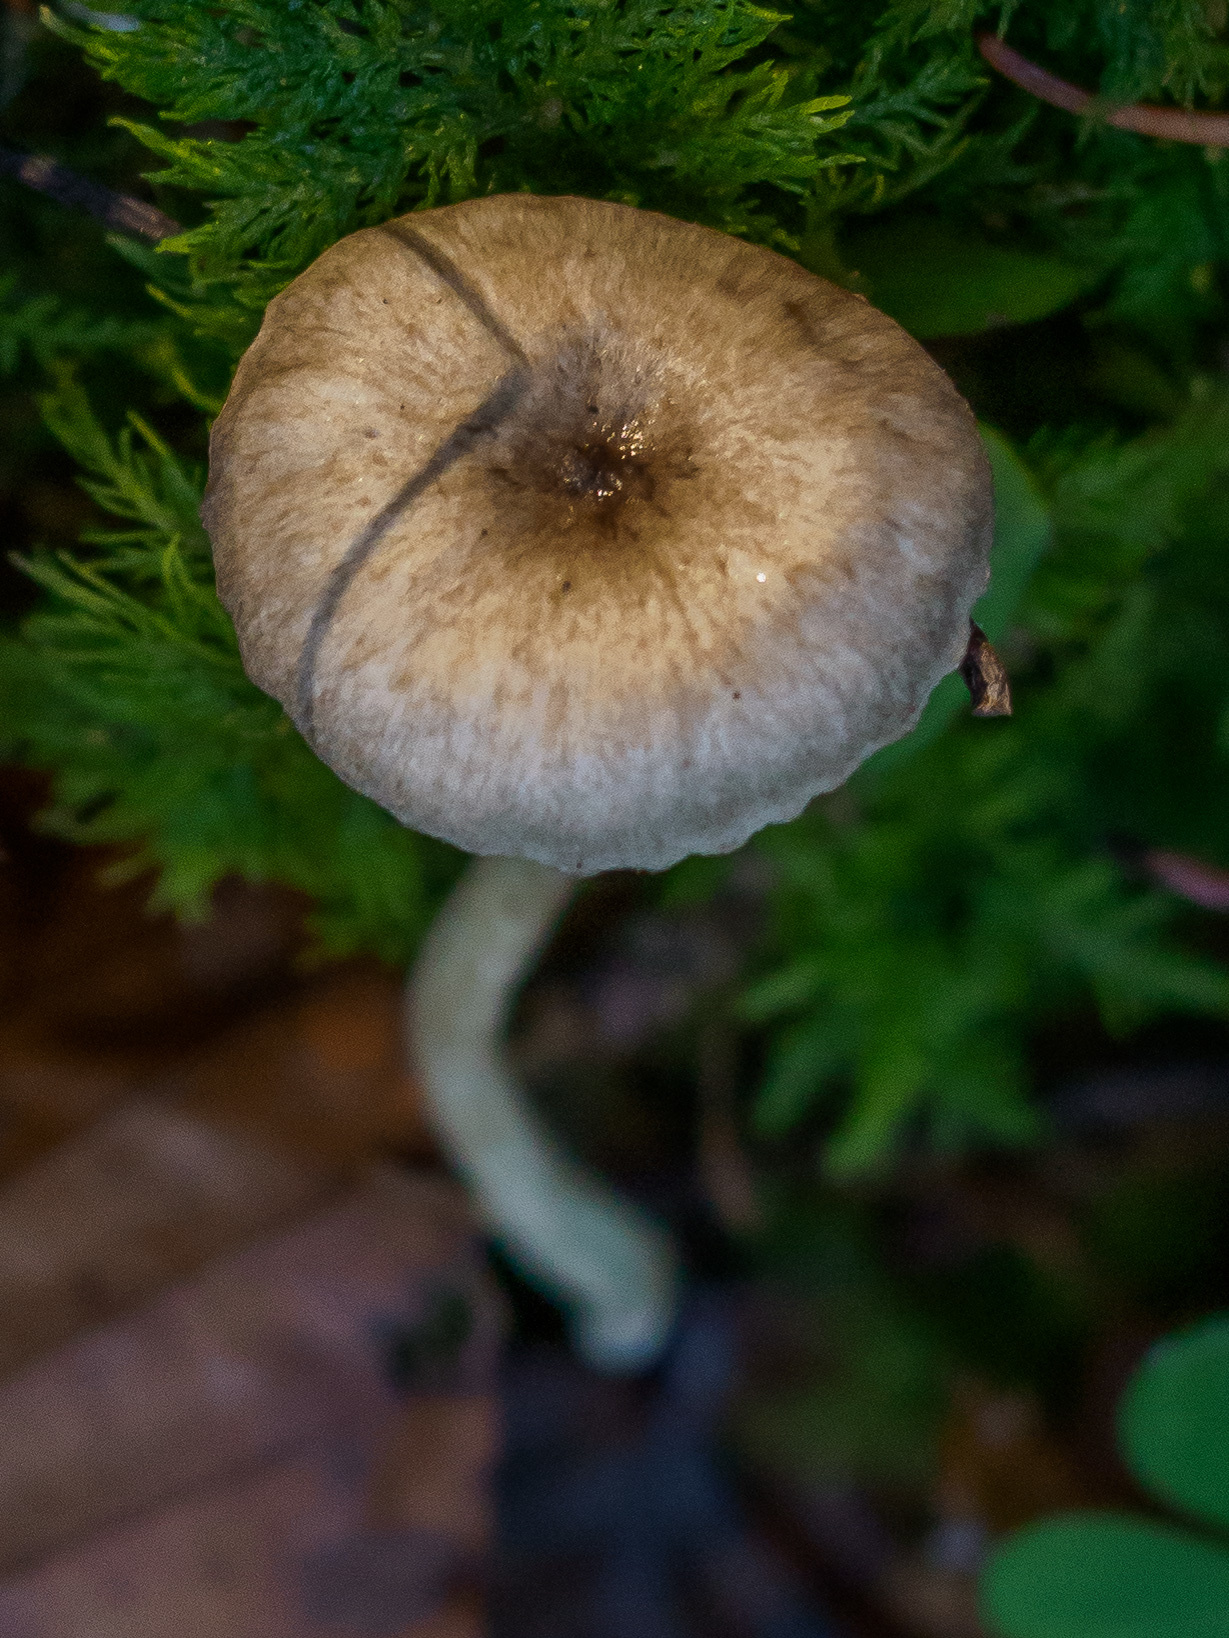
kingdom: Fungi
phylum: Basidiomycota
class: Agaricomycetes
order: Agaricales
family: Hygrophoraceae
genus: Hygrophorus
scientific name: Hygrophorus pustulatus
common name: Blistered woodwax
